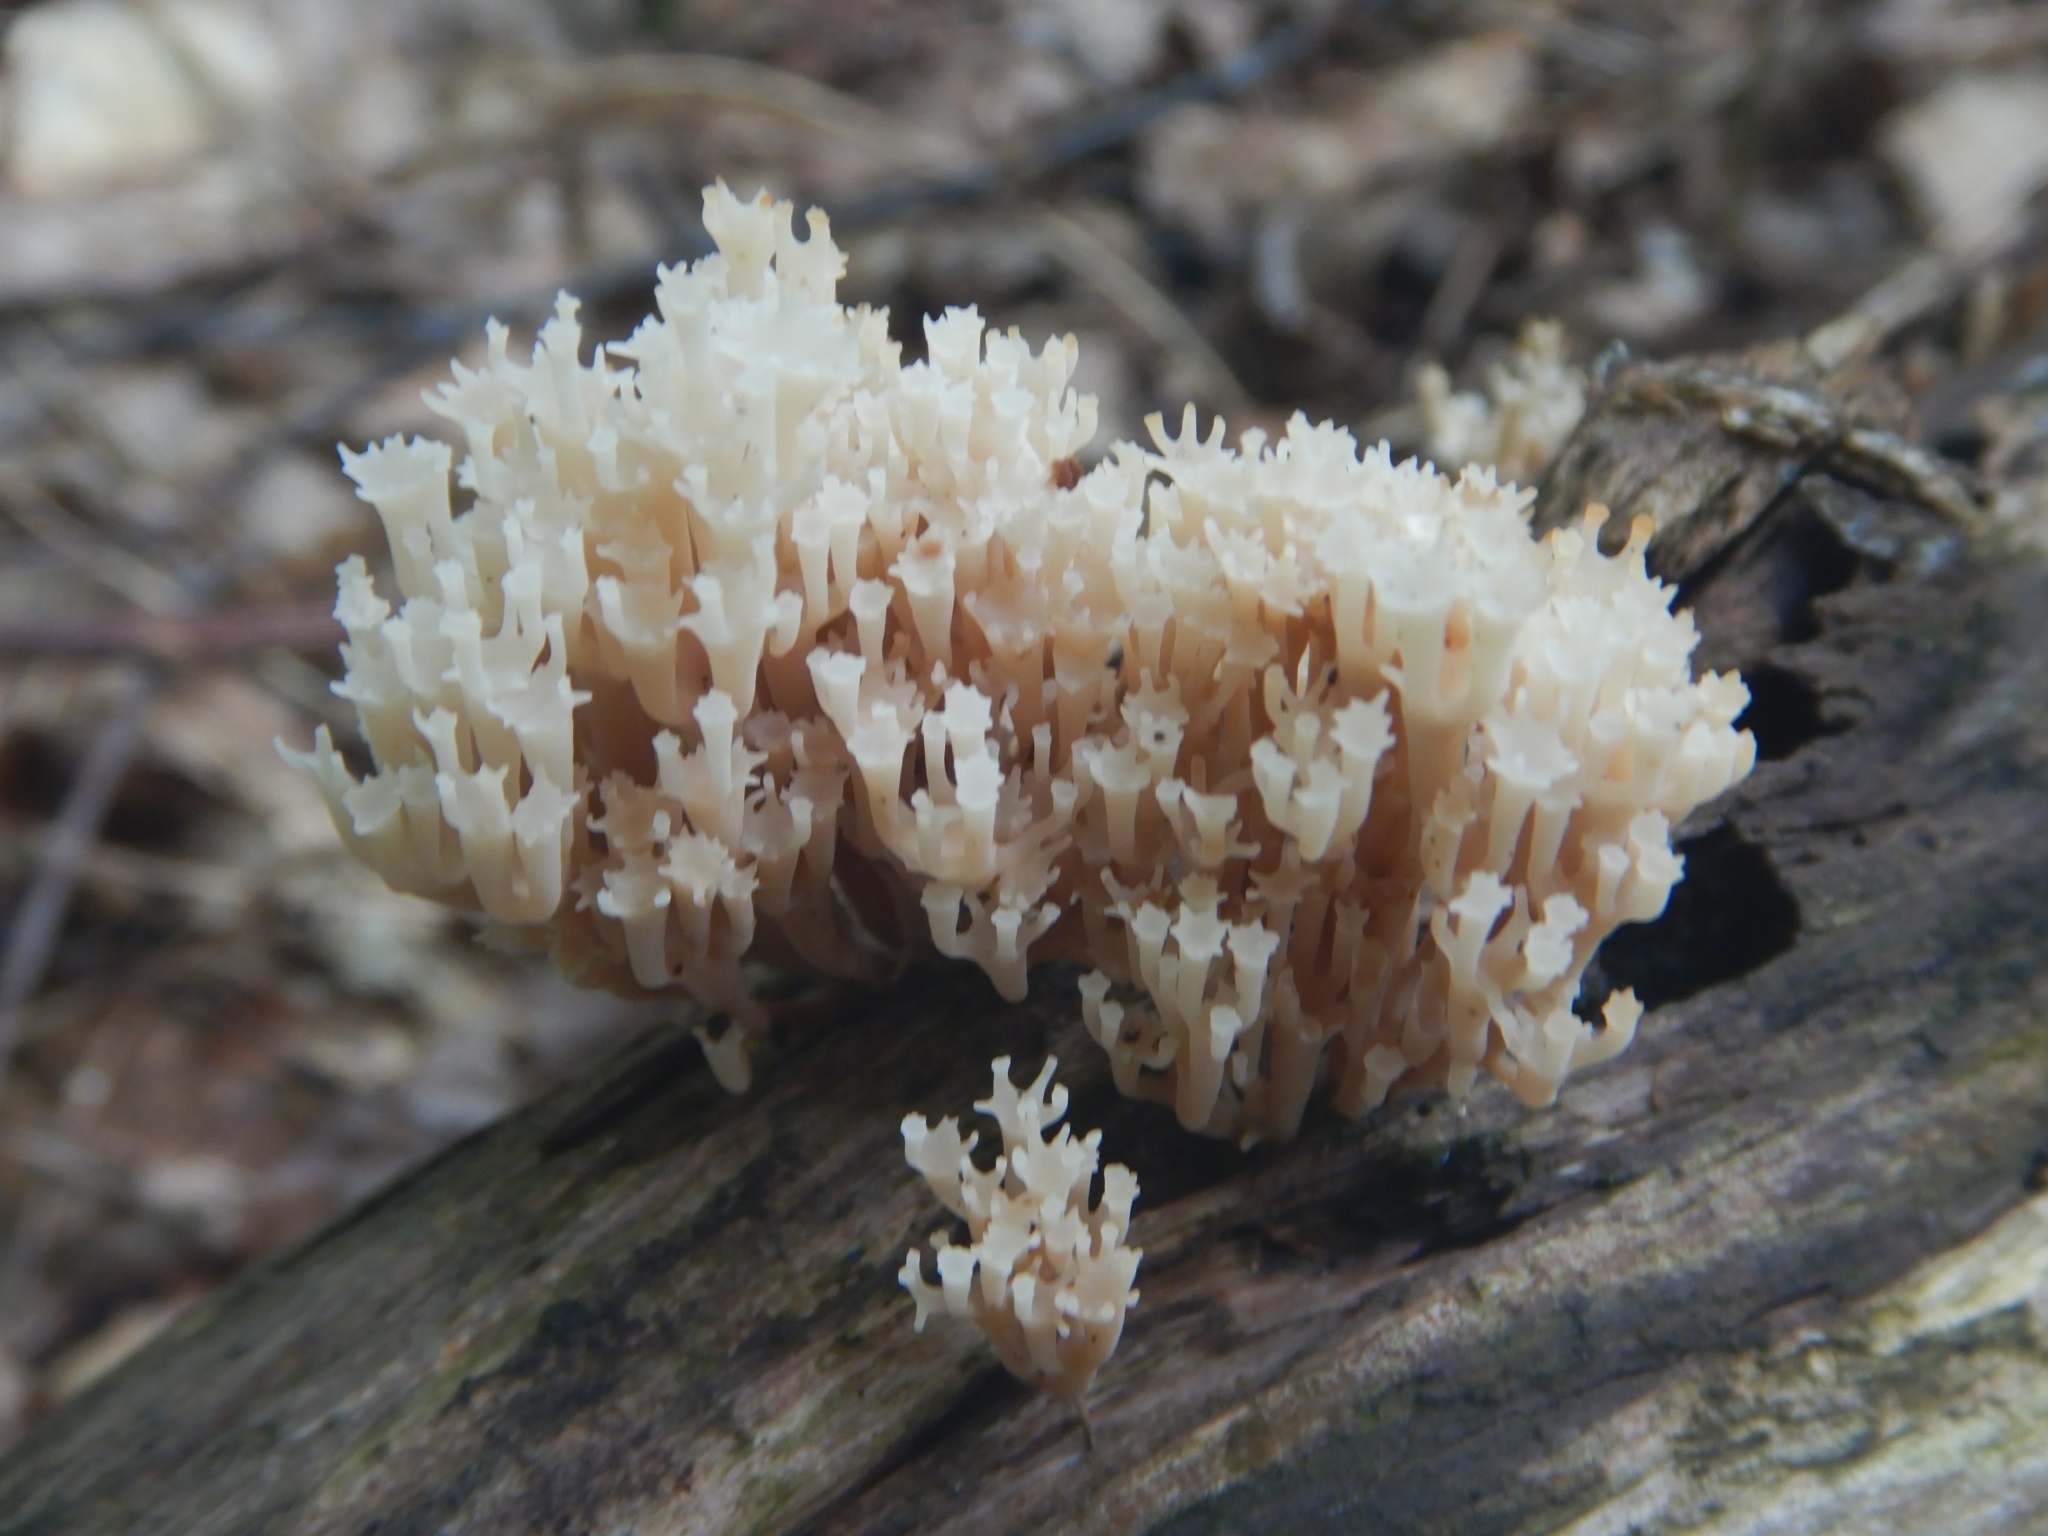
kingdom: Fungi
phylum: Basidiomycota
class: Agaricomycetes
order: Russulales
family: Auriscalpiaceae
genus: Artomyces
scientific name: Artomyces pyxidatus
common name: Crown-tipped coral fungus
